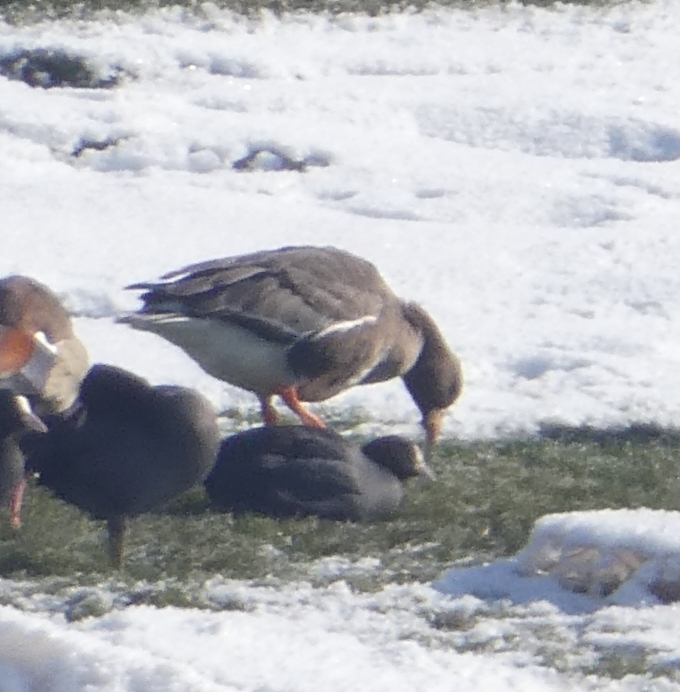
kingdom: Animalia
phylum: Chordata
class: Aves
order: Anseriformes
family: Anatidae
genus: Anser
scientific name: Anser anser
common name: Greylag goose
